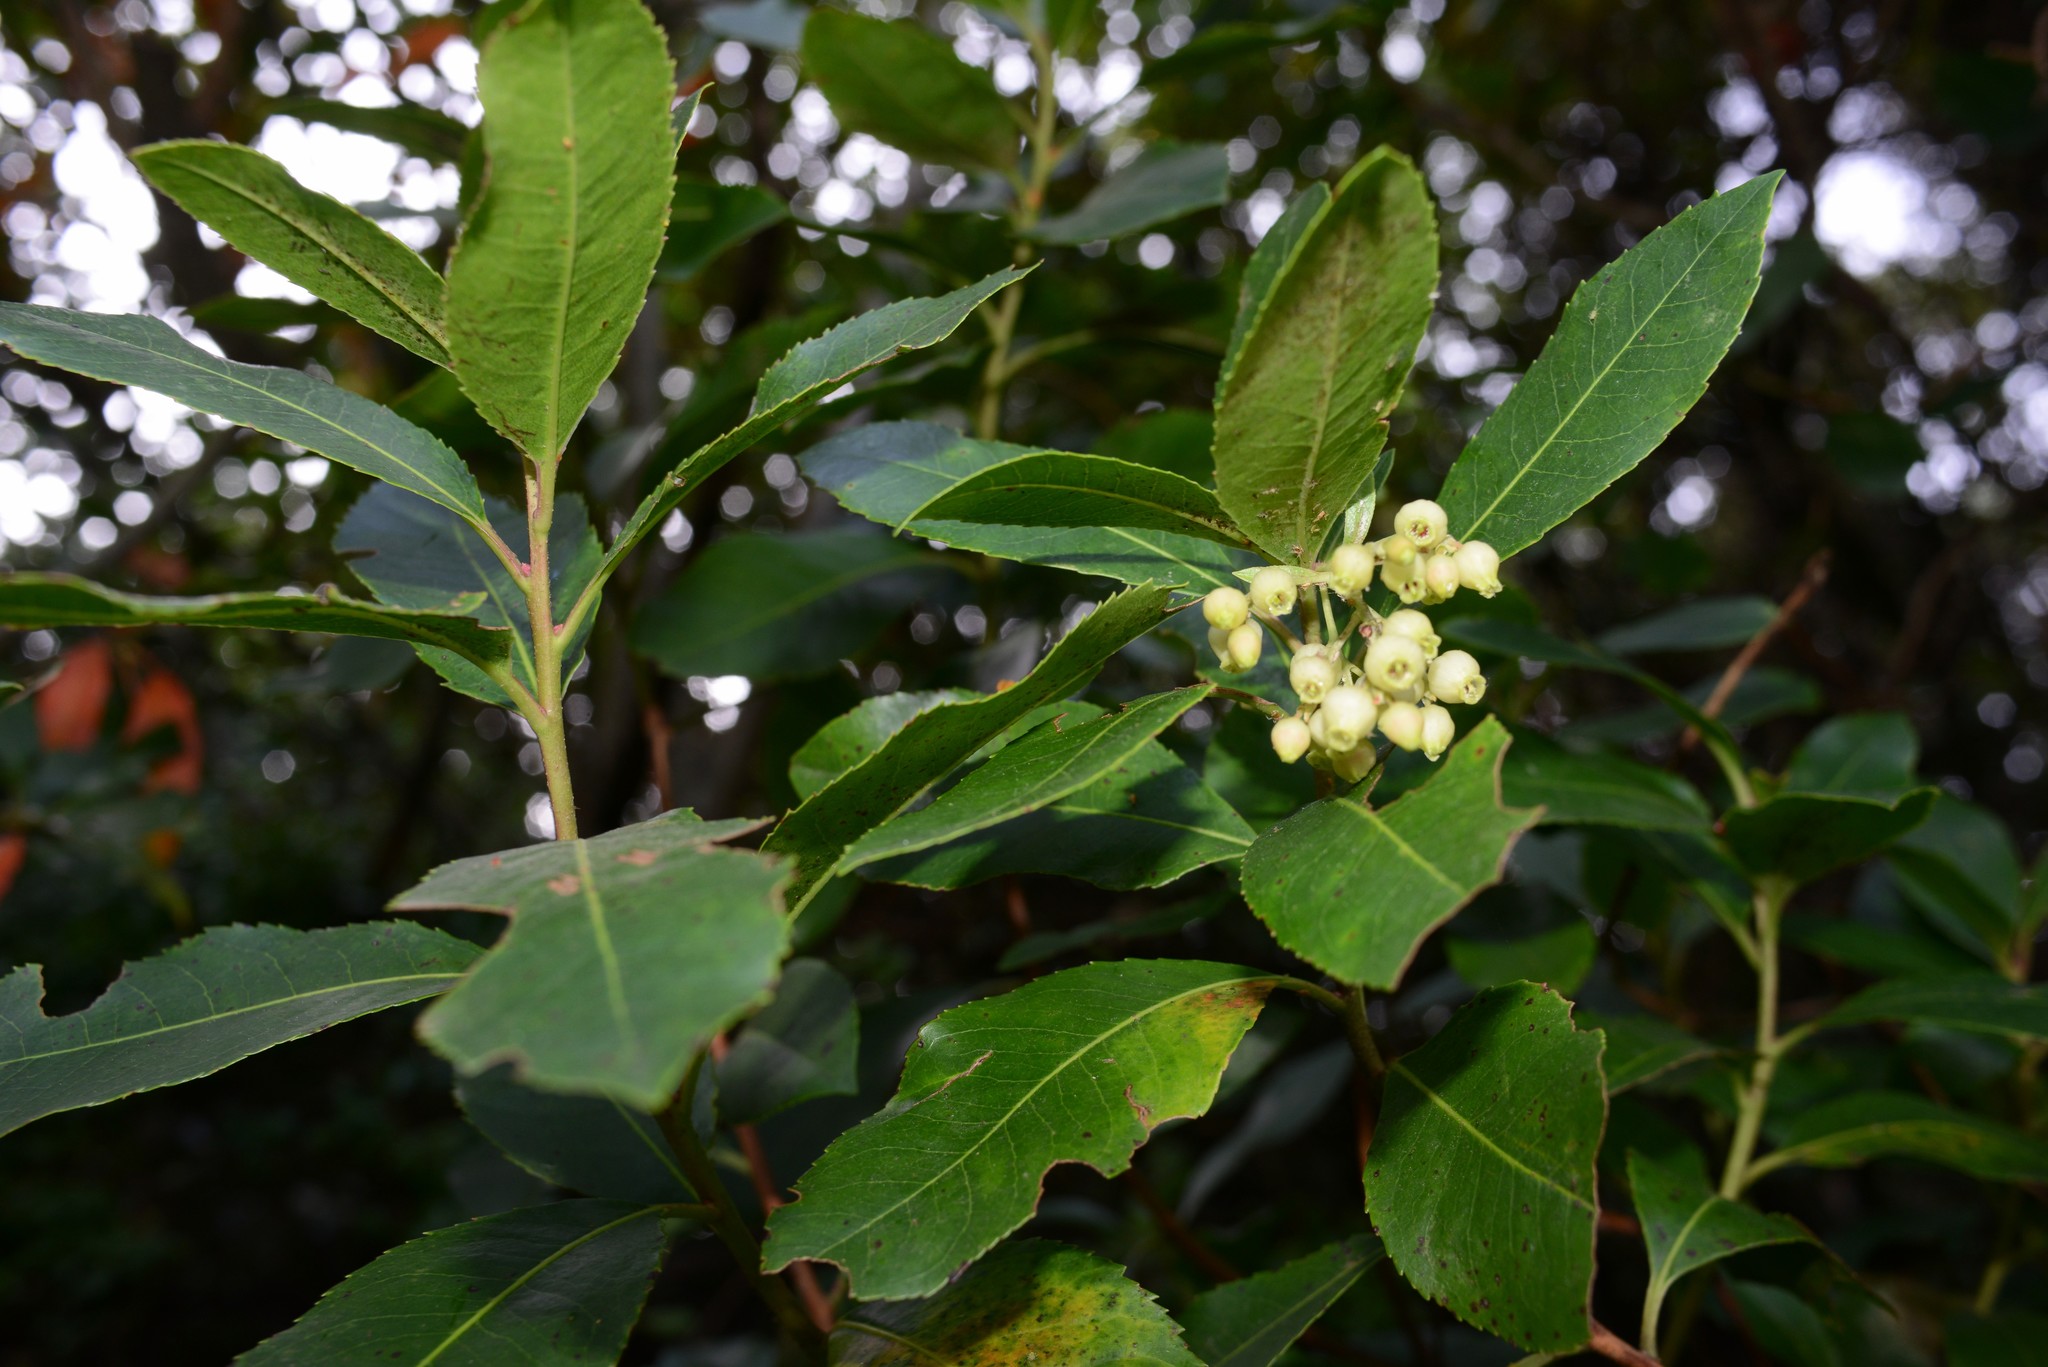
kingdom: Plantae
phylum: Tracheophyta
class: Magnoliopsida
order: Ericales
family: Ericaceae
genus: Arbutus
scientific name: Arbutus unedo
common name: Strawberry-tree
